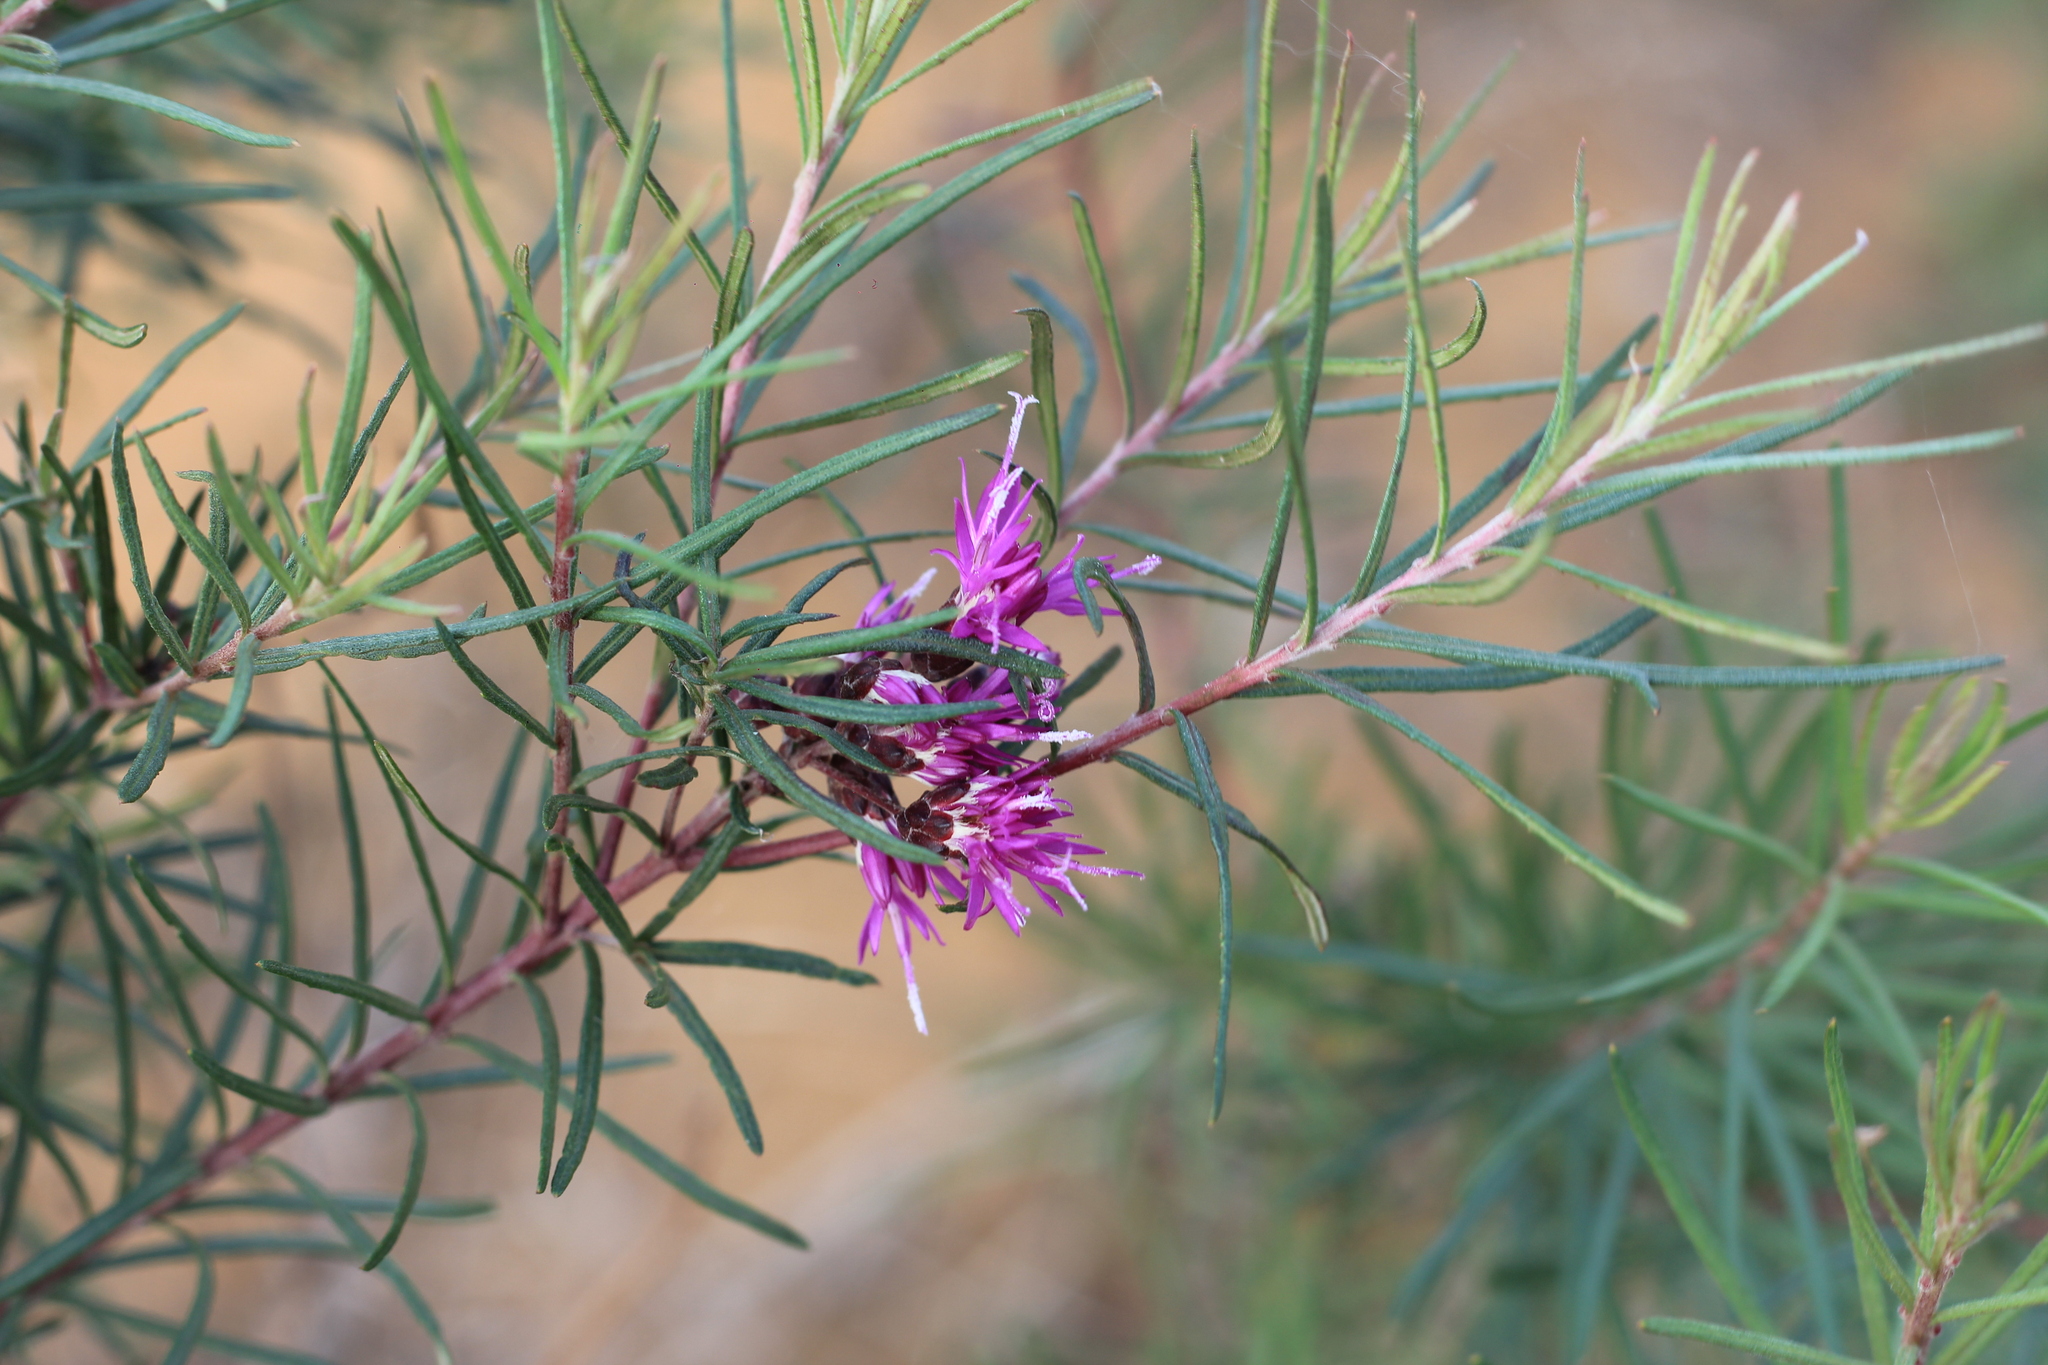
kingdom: Plantae
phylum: Tracheophyta
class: Magnoliopsida
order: Asterales
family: Asteraceae
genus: Vernonanthura
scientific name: Vernonanthura nudiflora
